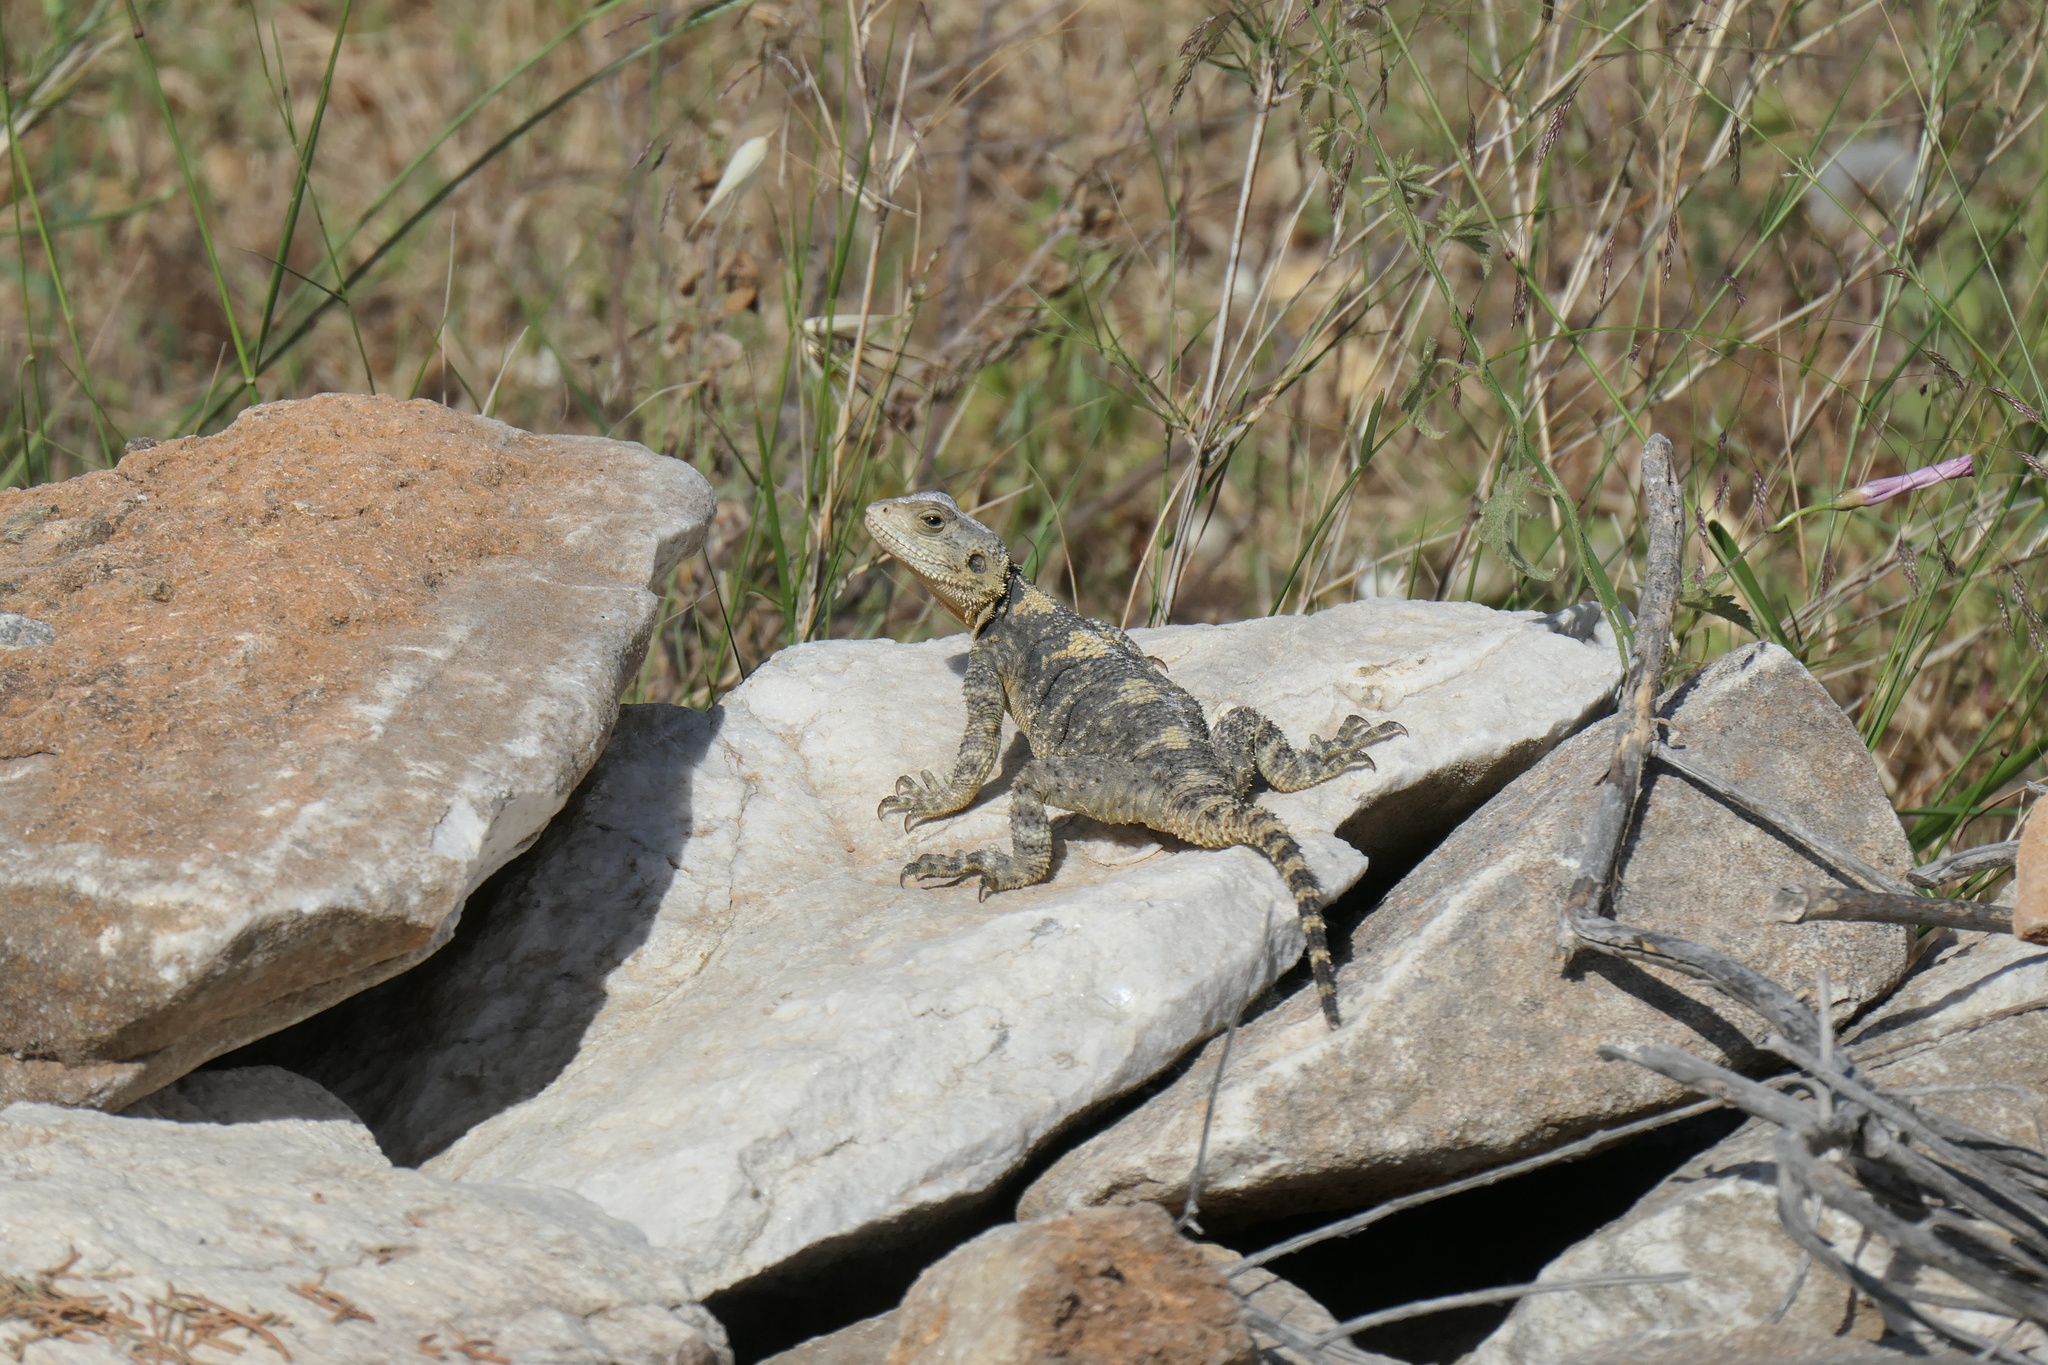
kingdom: Animalia
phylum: Chordata
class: Squamata
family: Agamidae
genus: Stellagama
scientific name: Stellagama stellio
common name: Starred agama
